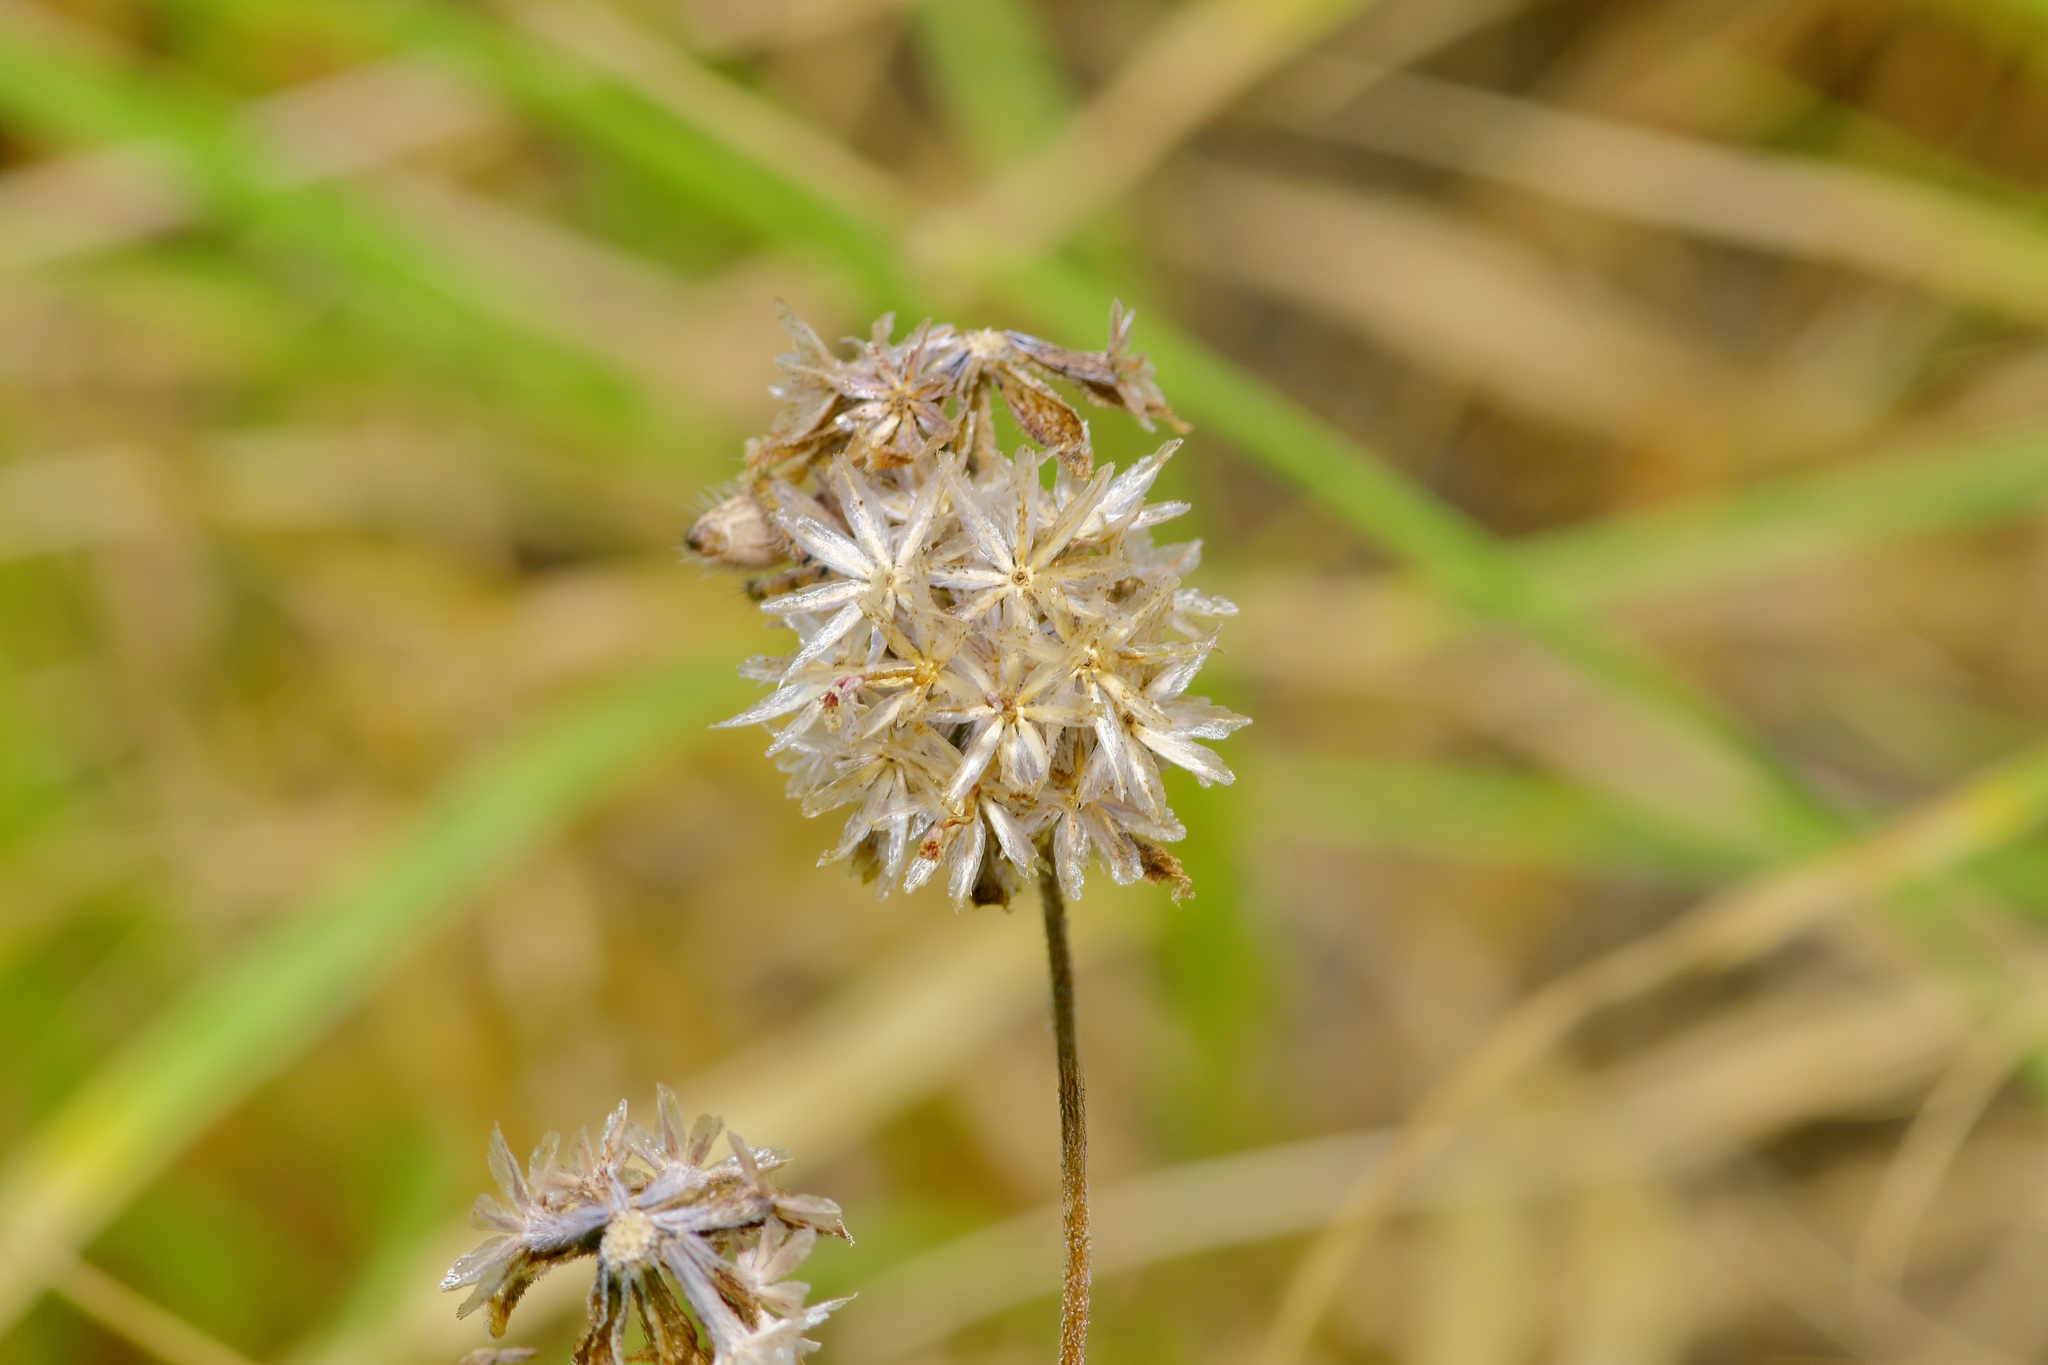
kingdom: Plantae
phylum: Tracheophyta
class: Magnoliopsida
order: Asterales
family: Asteraceae
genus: Palafoxia
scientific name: Palafoxia texana
